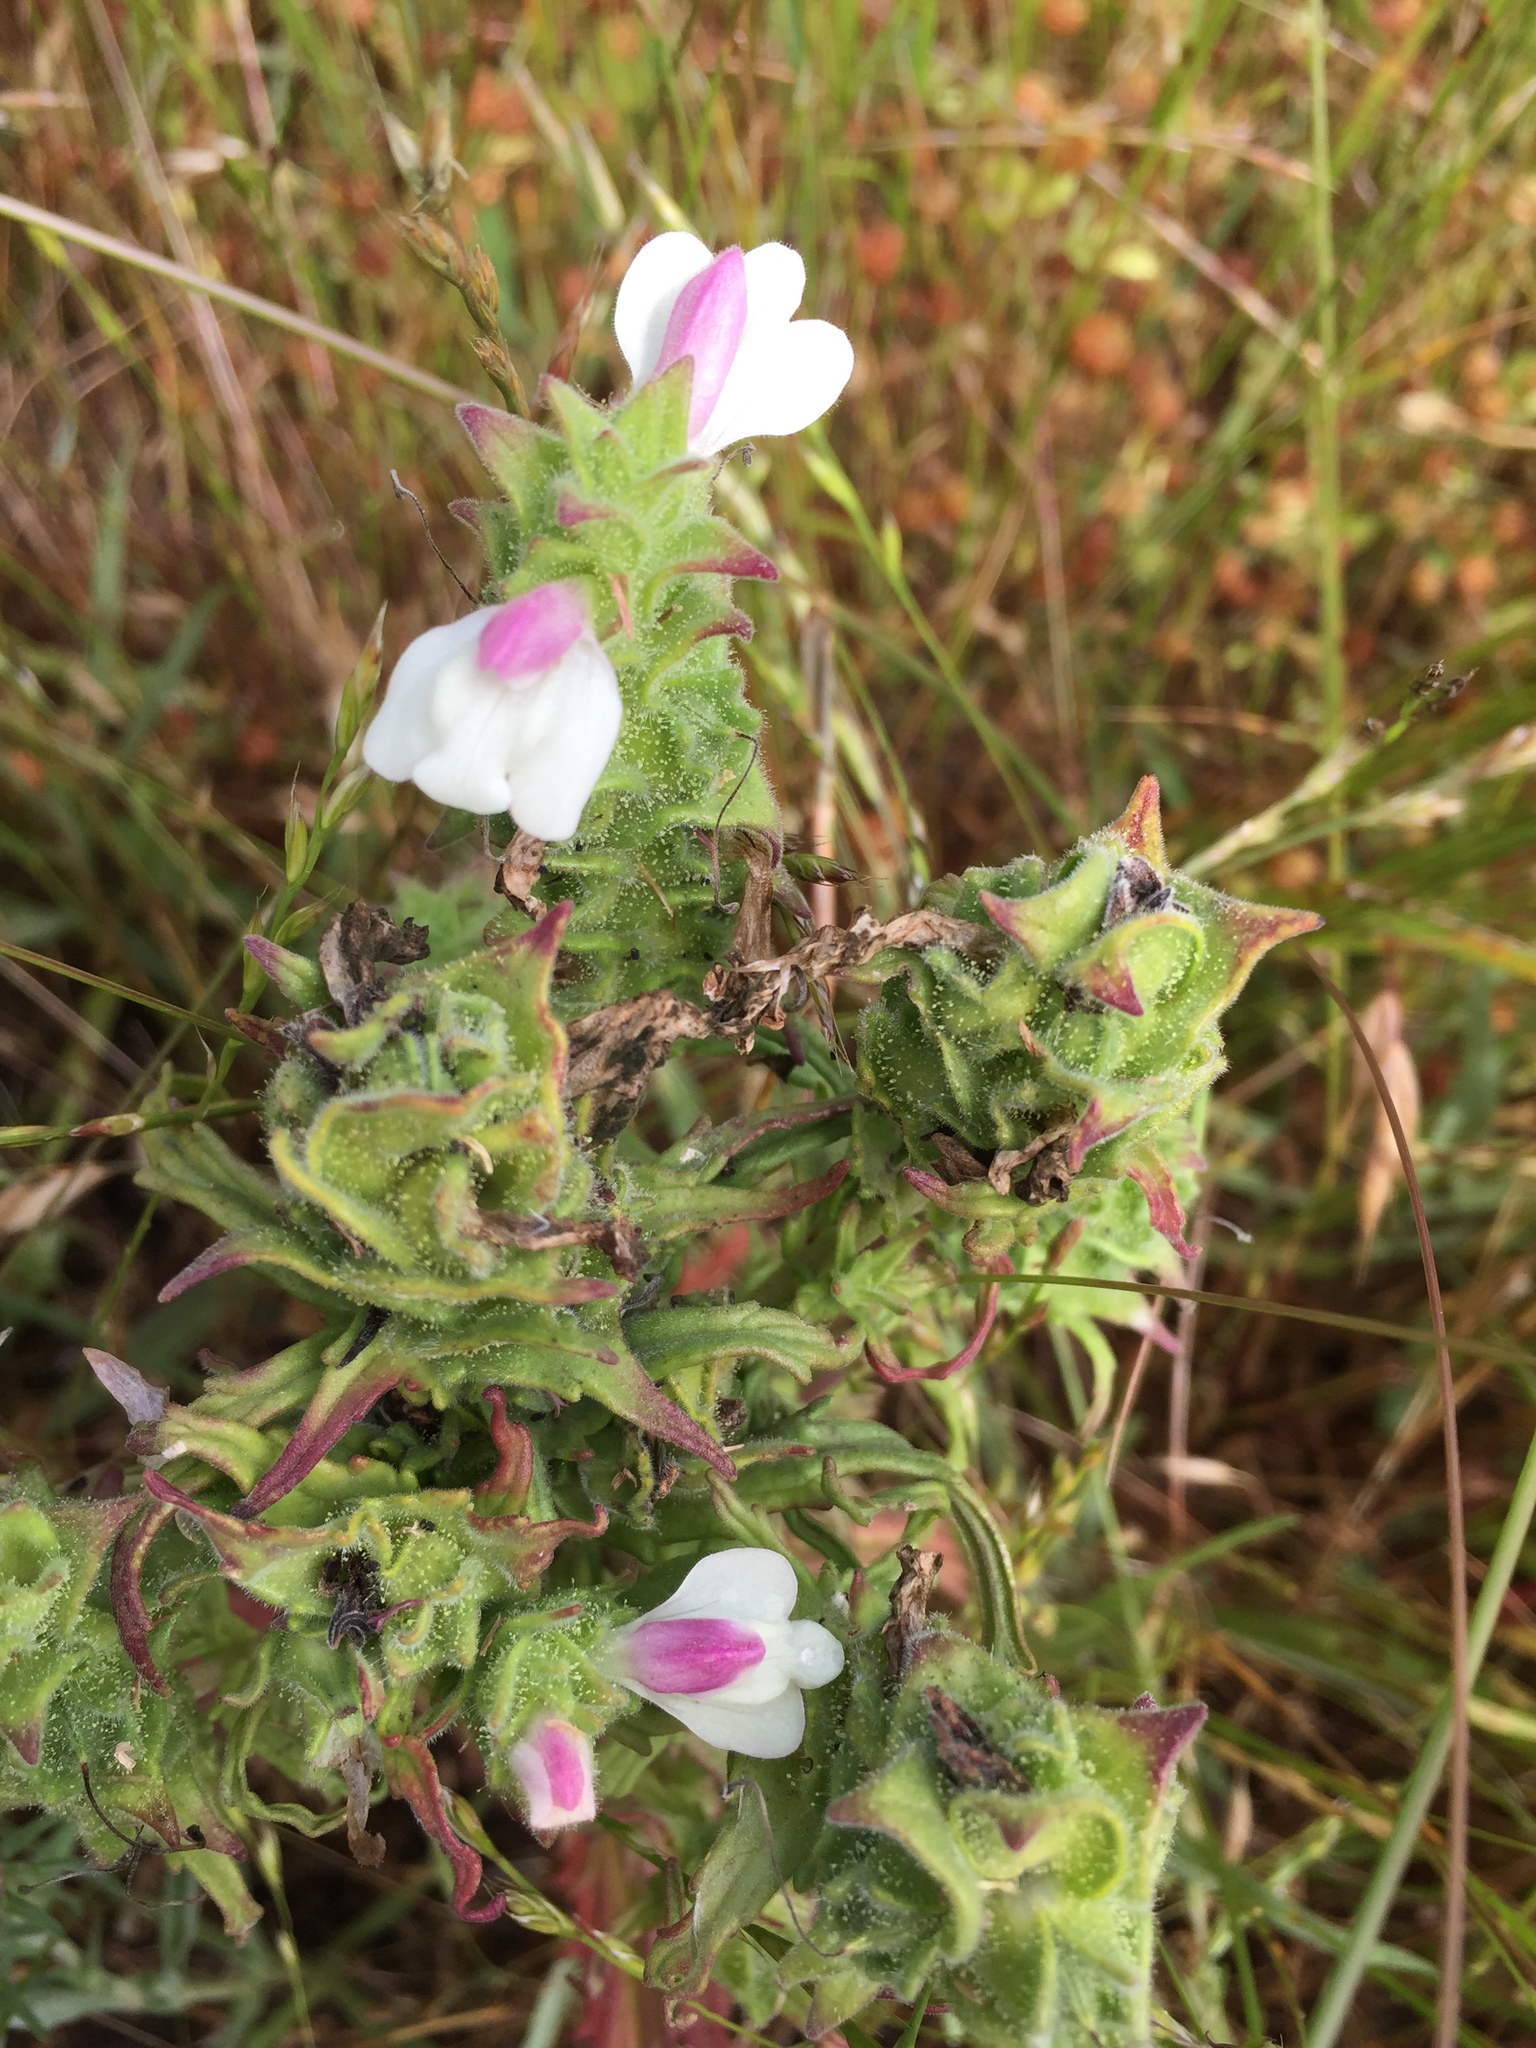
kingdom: Plantae
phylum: Tracheophyta
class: Magnoliopsida
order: Lamiales
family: Orobanchaceae
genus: Bellardia
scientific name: Bellardia trixago
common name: Mediterranean lineseed
